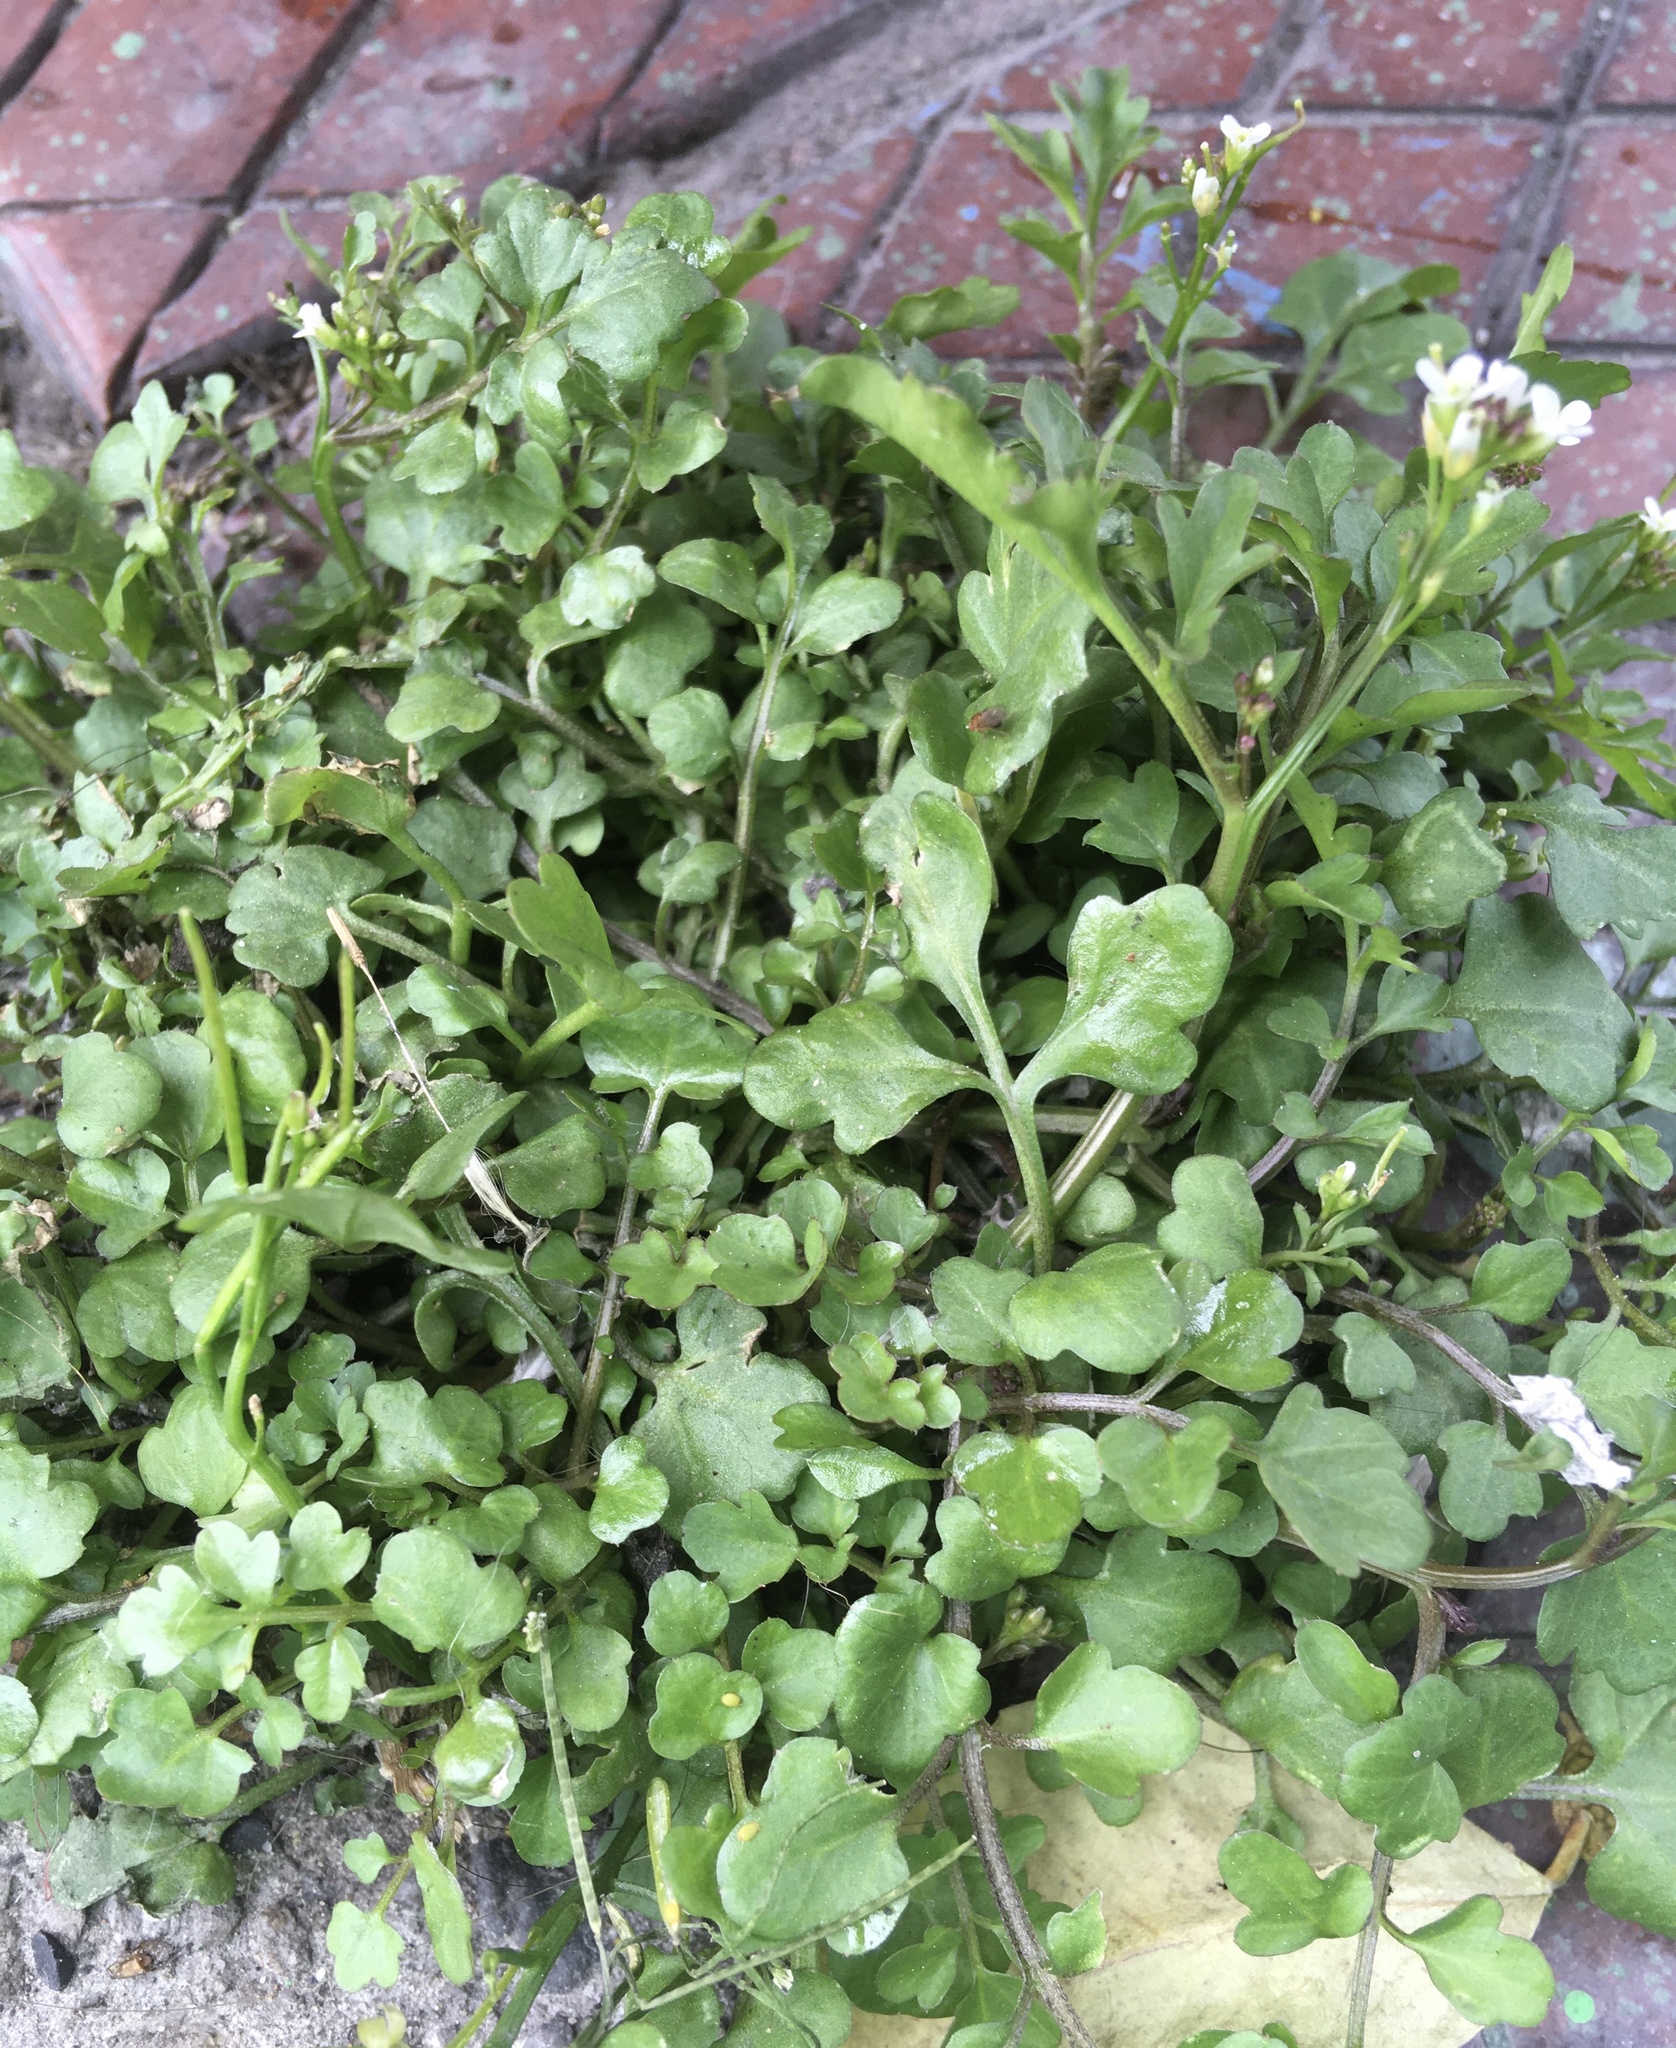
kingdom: Plantae
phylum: Tracheophyta
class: Magnoliopsida
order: Brassicales
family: Brassicaceae
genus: Cardamine
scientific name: Cardamine hirsuta
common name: Hairy bittercress
